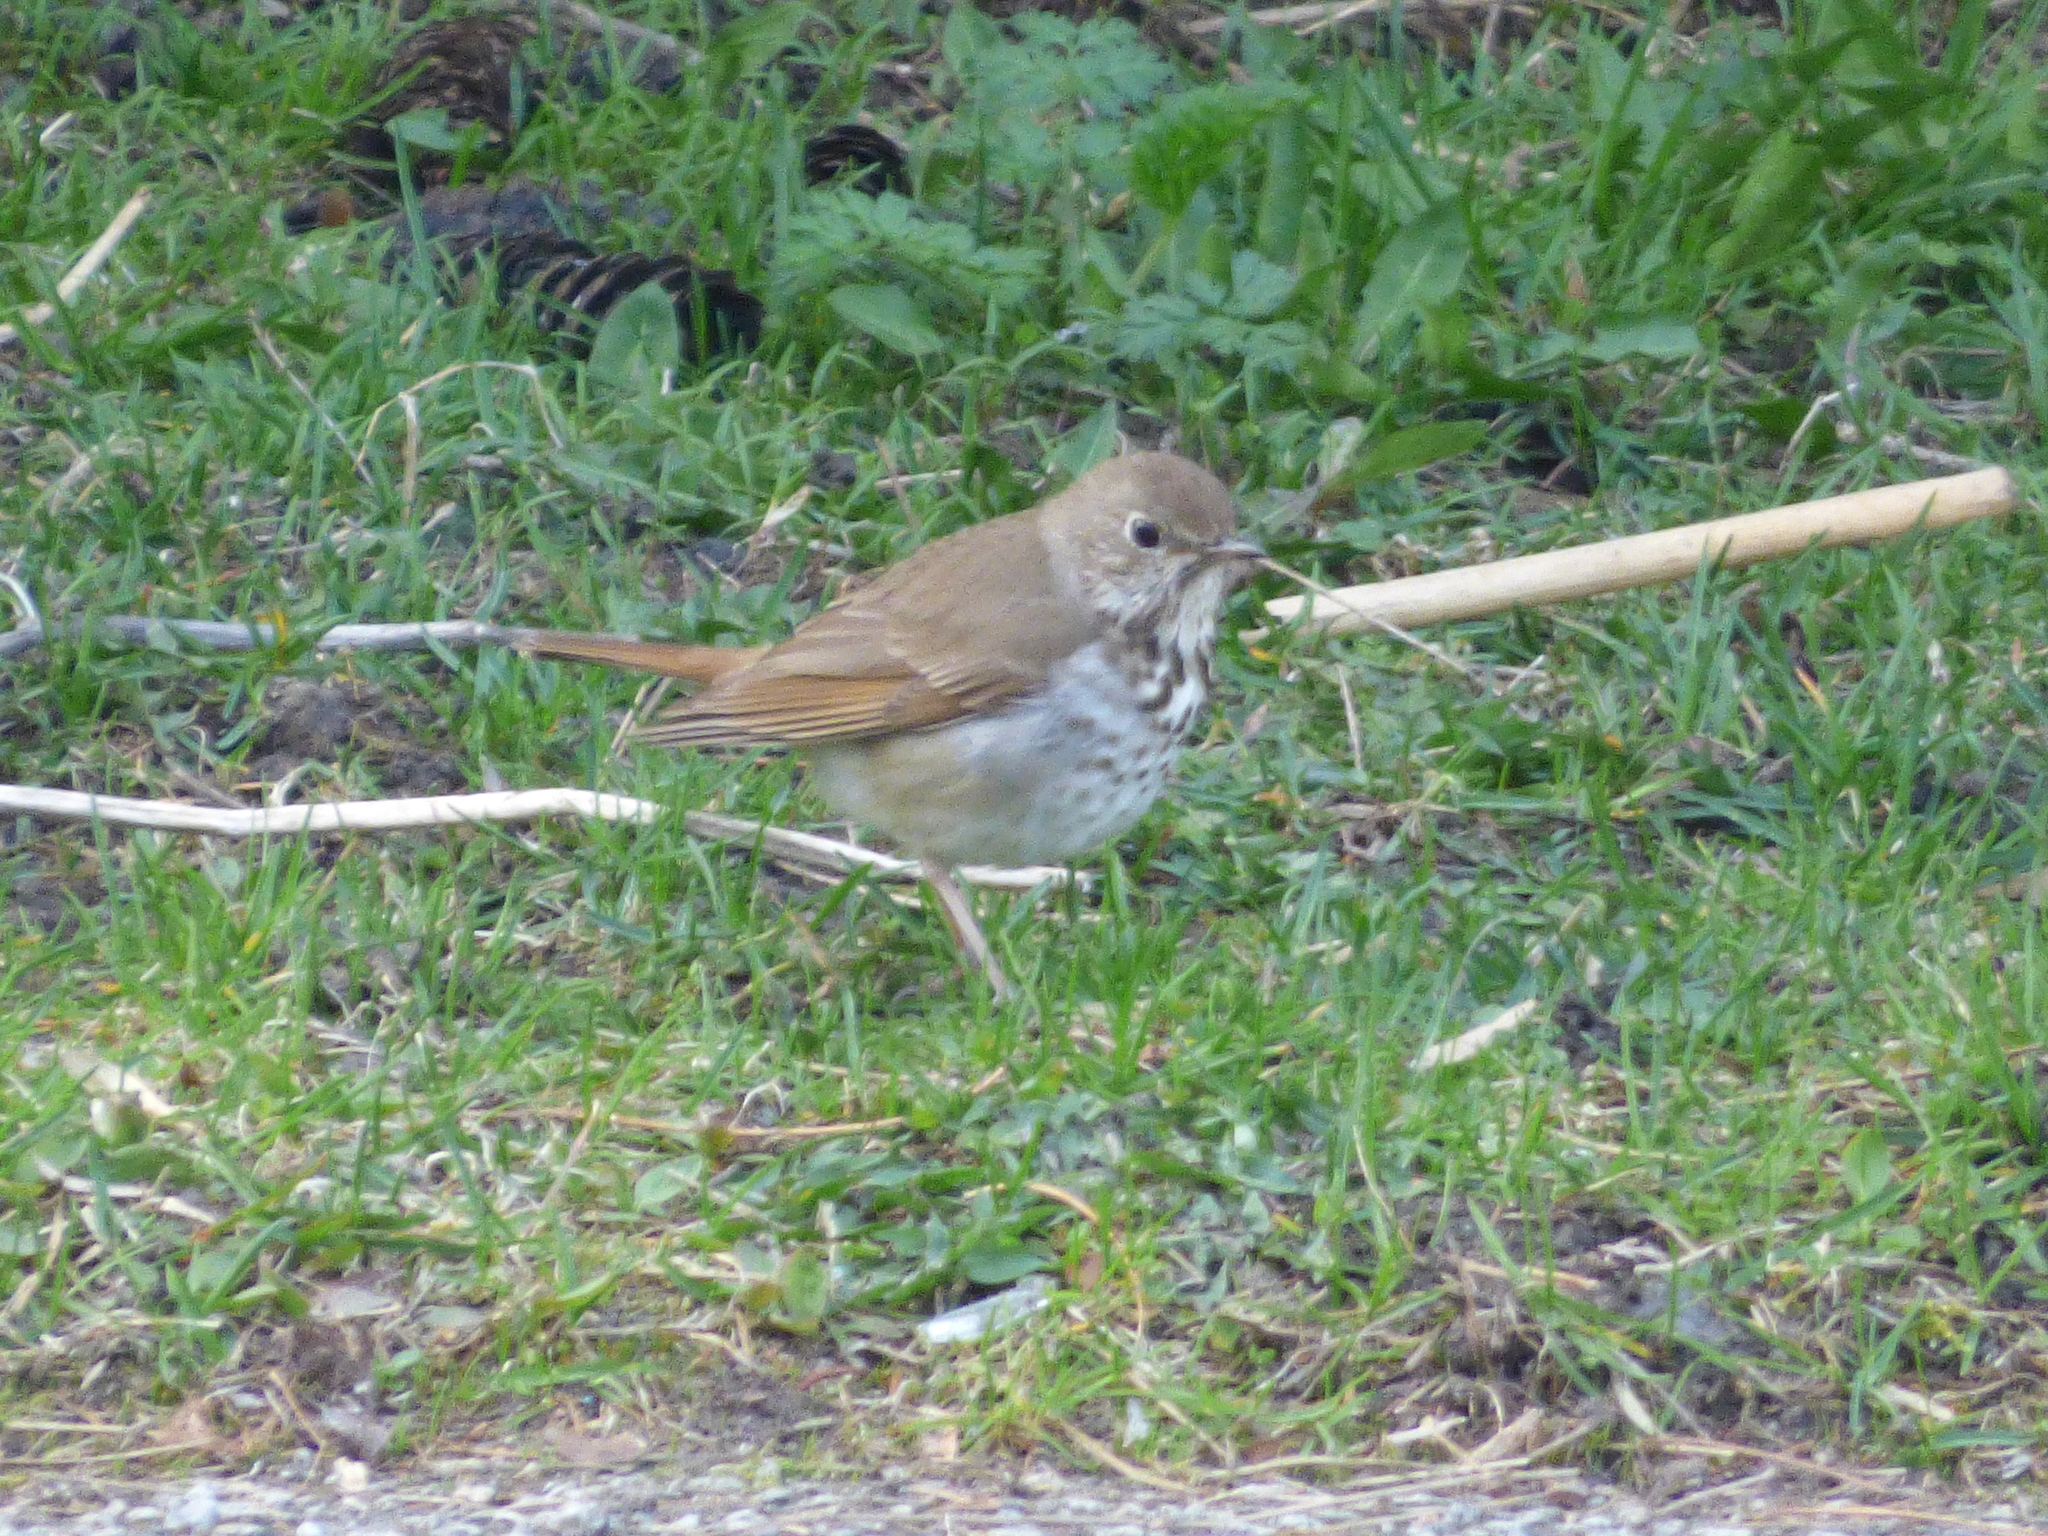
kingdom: Animalia
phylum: Chordata
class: Aves
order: Passeriformes
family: Turdidae
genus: Catharus
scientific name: Catharus guttatus
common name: Hermit thrush
